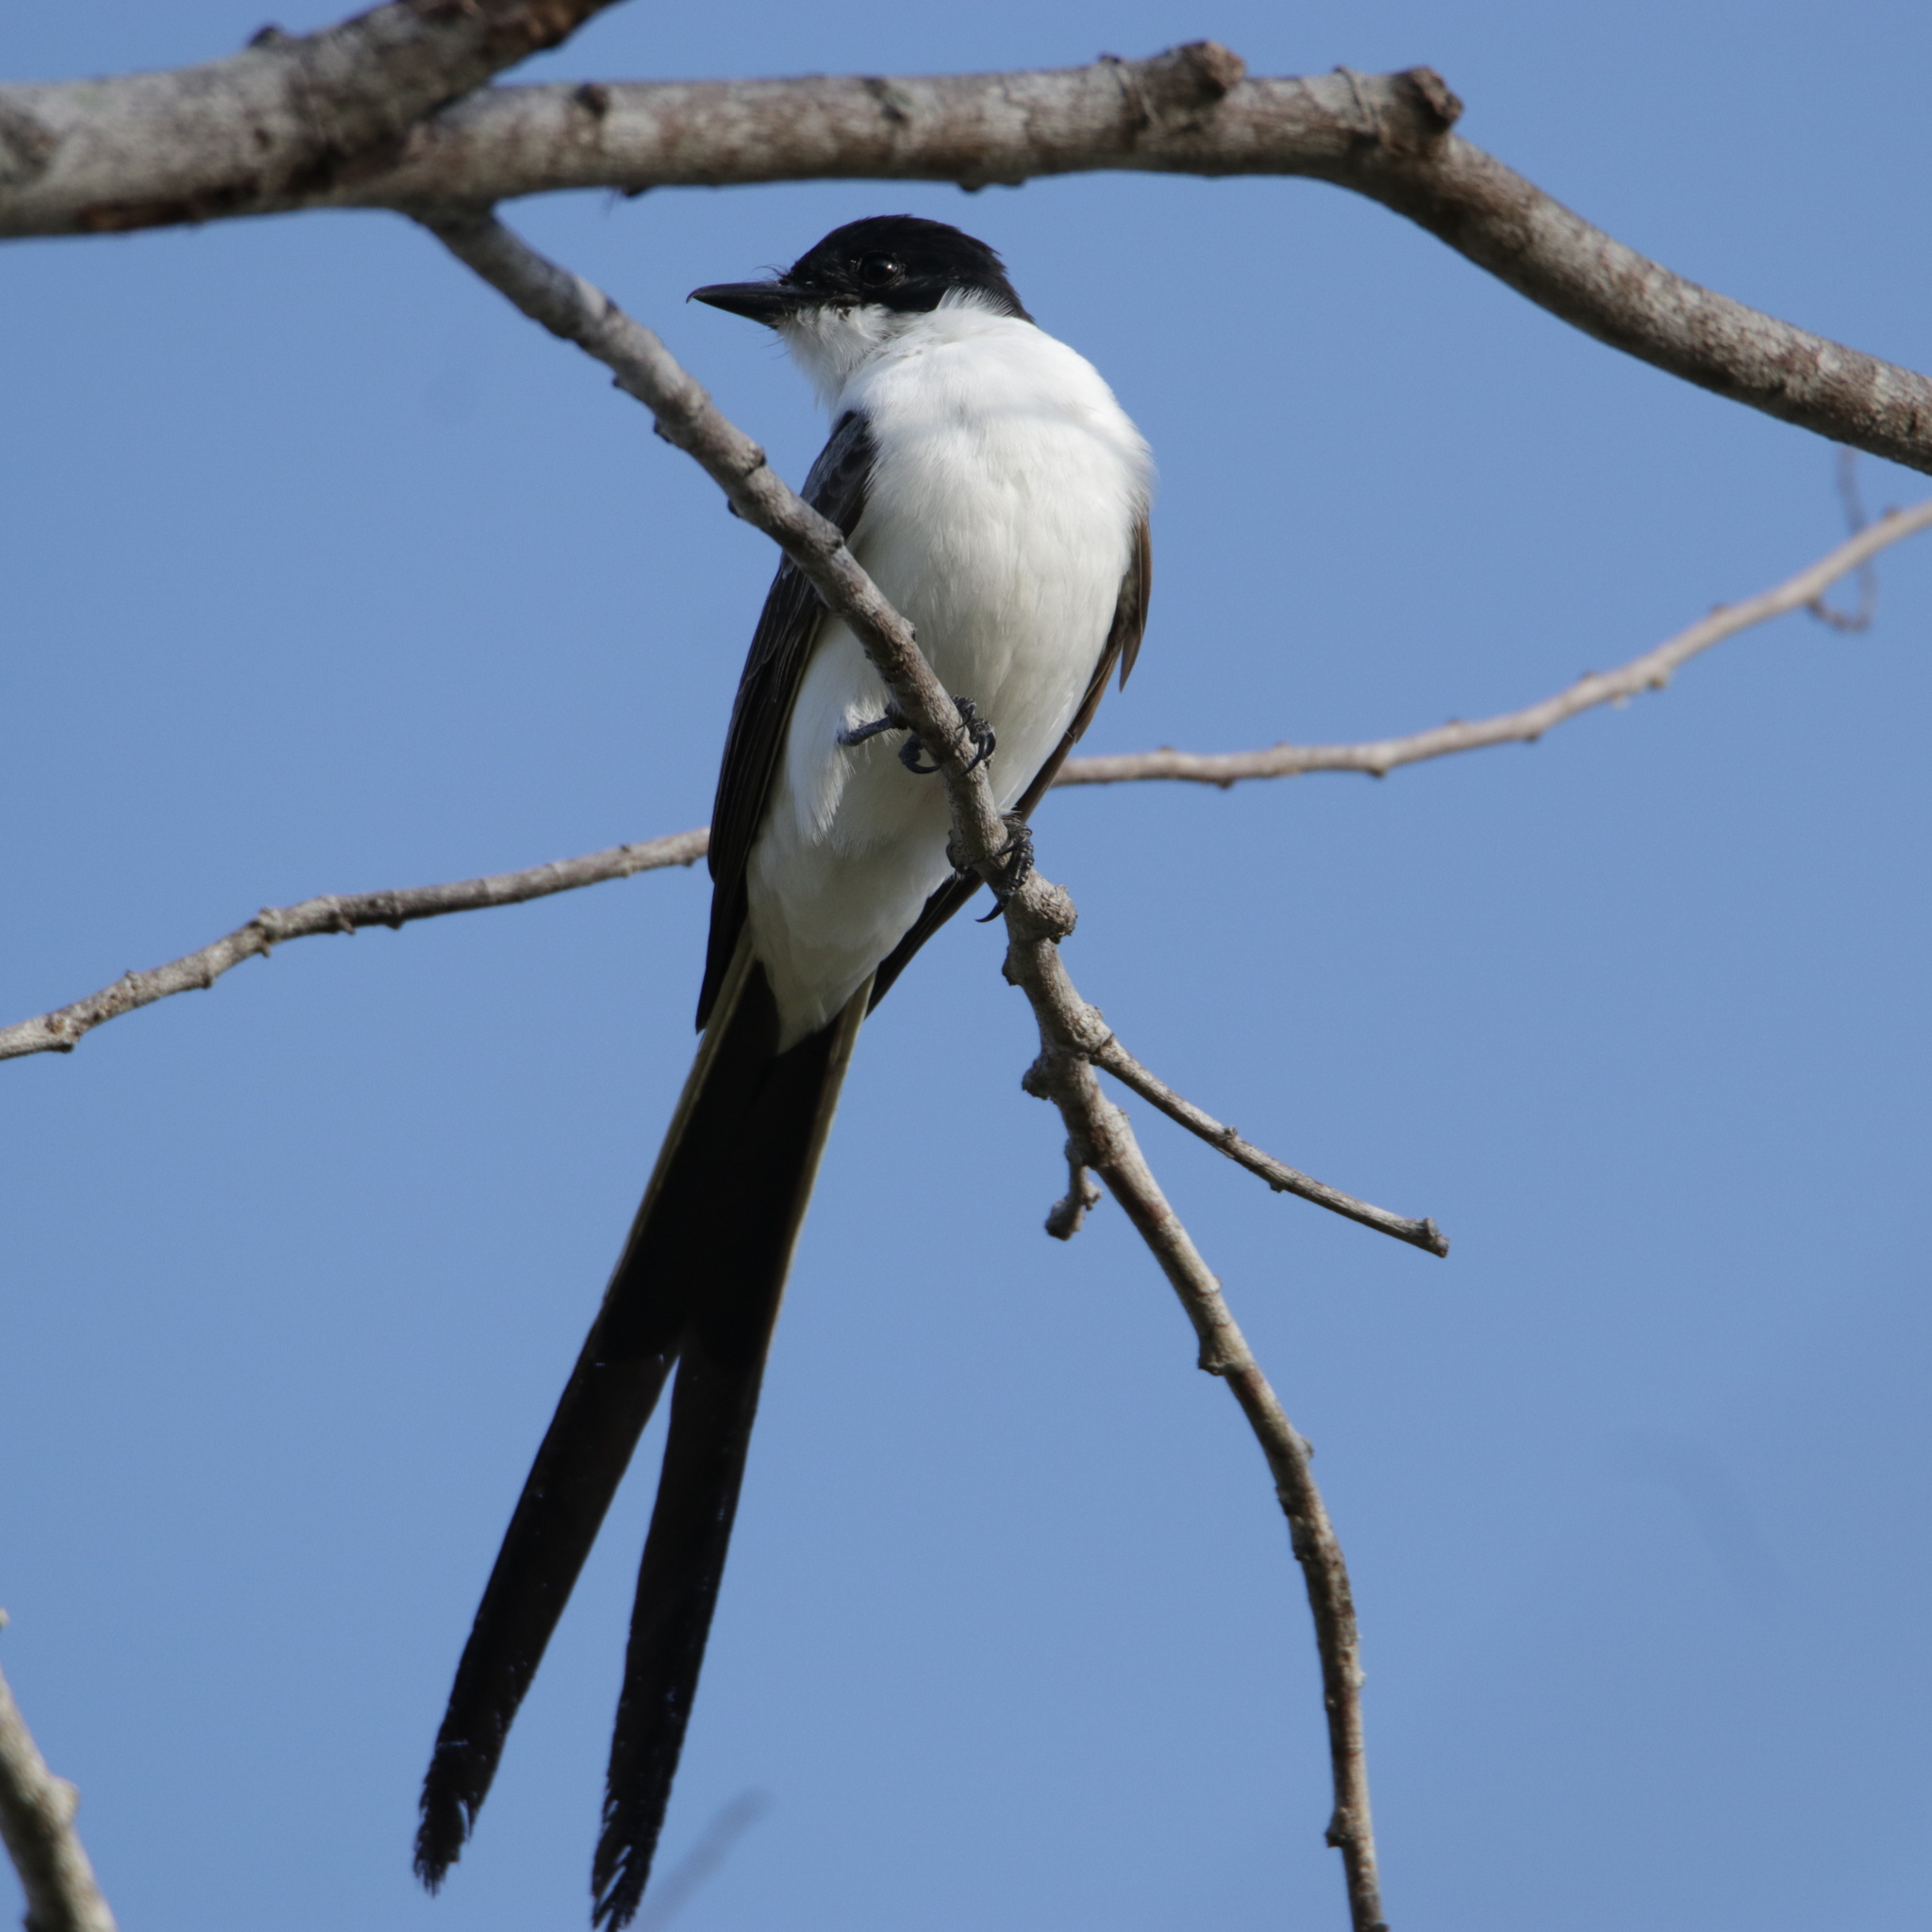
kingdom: Animalia
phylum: Chordata
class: Aves
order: Passeriformes
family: Tyrannidae
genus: Tyrannus
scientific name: Tyrannus savana
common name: Fork-tailed flycatcher
